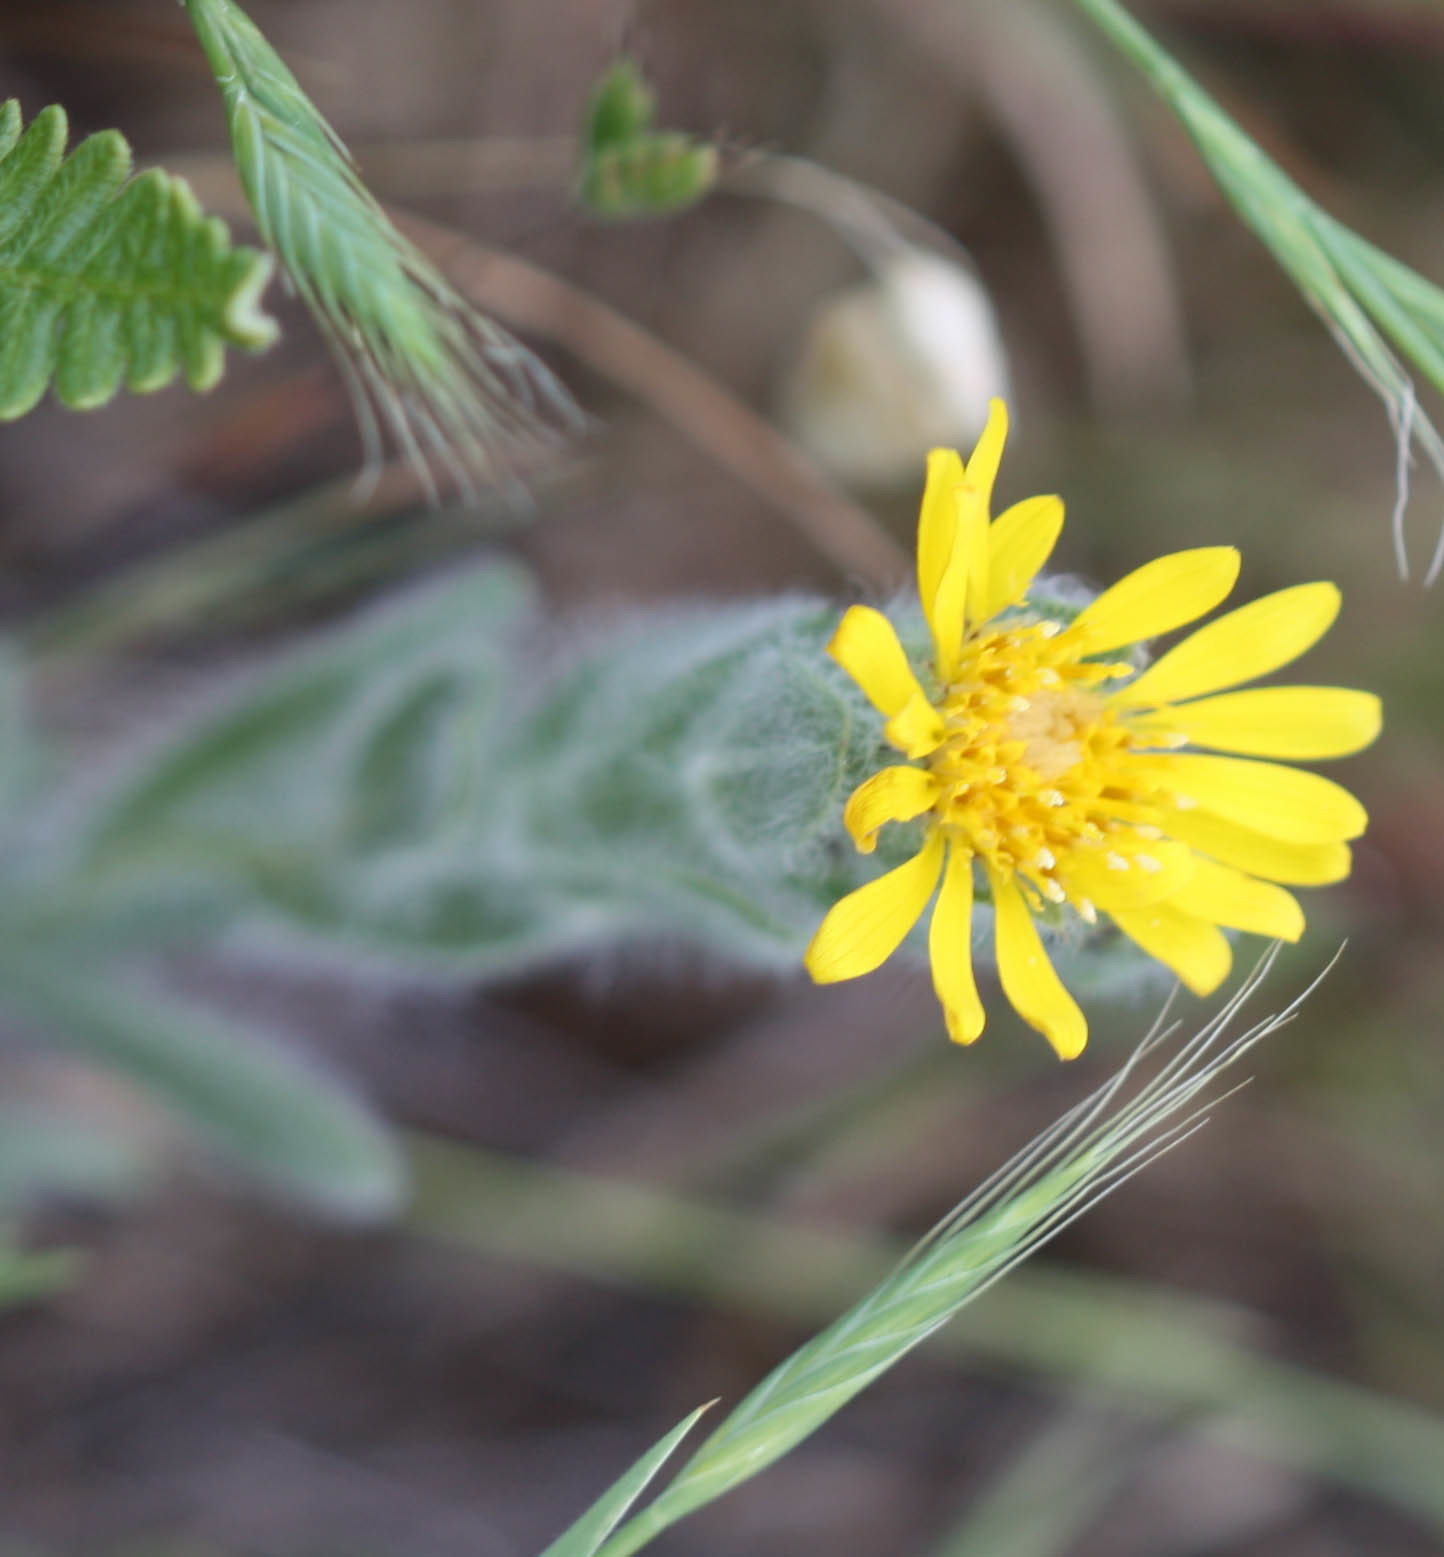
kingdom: Plantae
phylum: Tracheophyta
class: Magnoliopsida
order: Asterales
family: Asteraceae
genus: Heterotheca
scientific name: Heterotheca bolanderi
